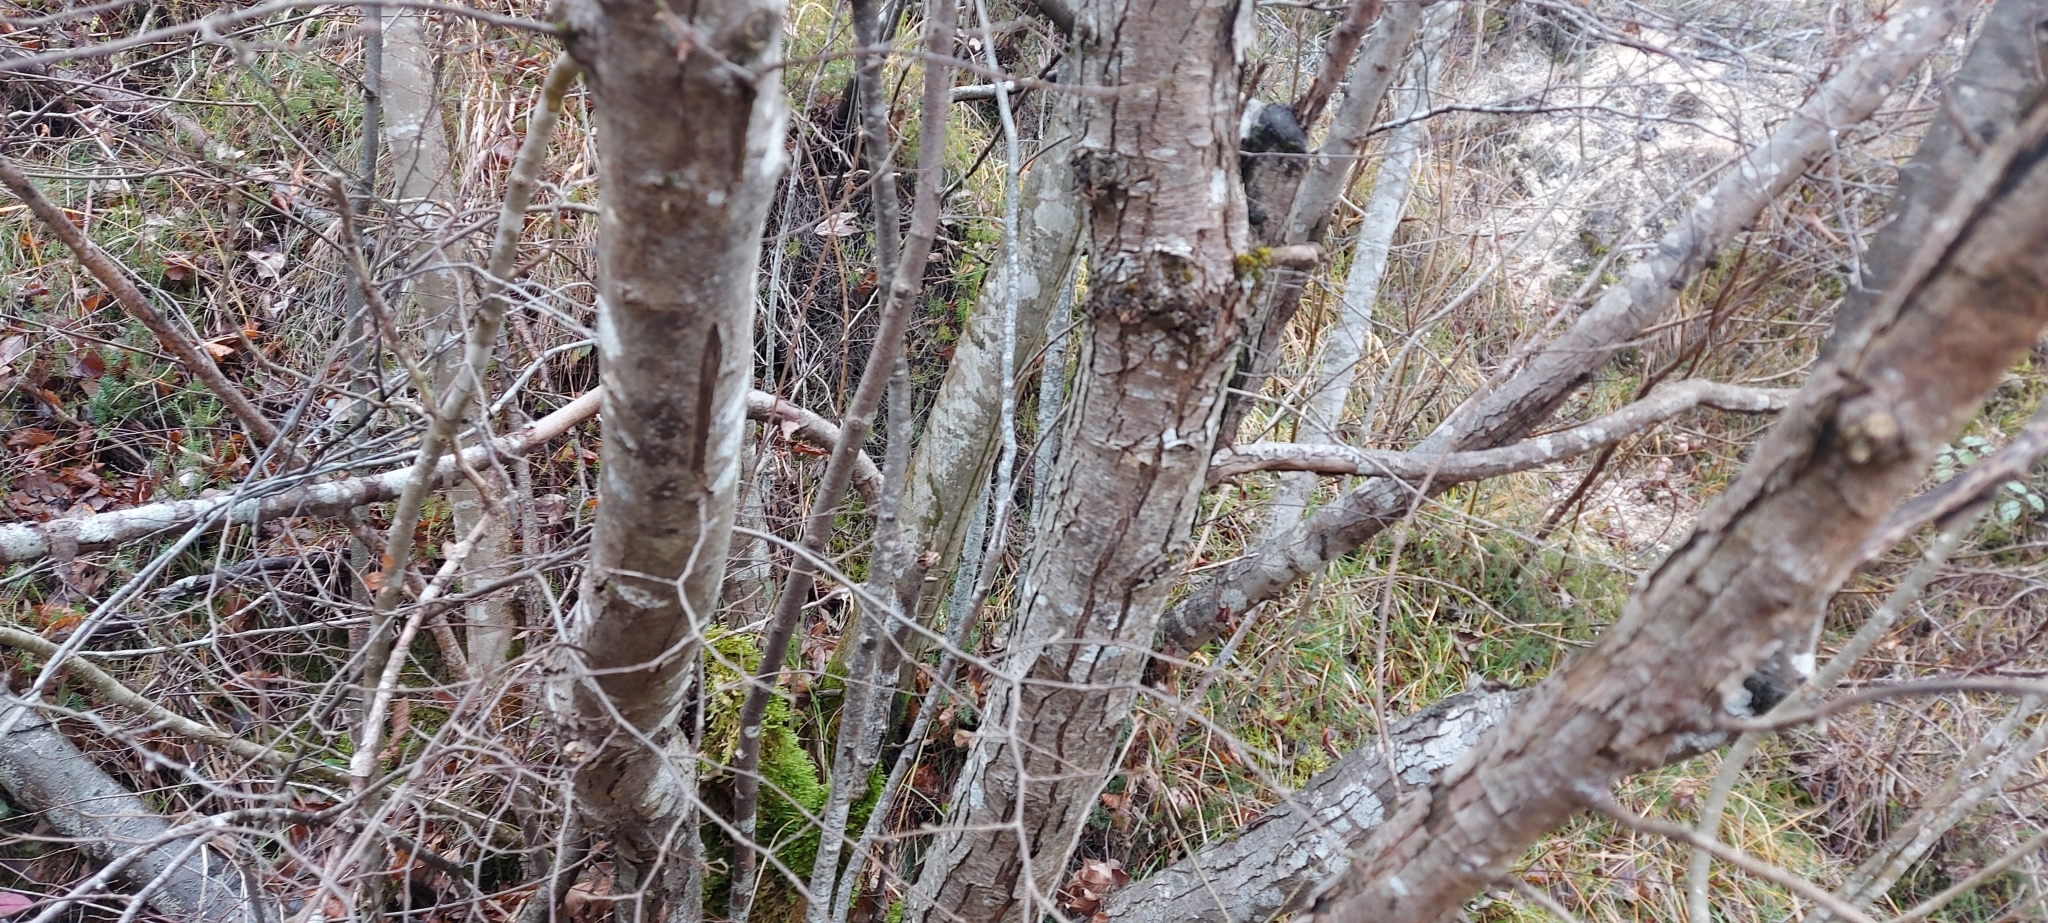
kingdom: Plantae
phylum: Tracheophyta
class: Magnoliopsida
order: Fagales
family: Betulaceae
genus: Ostrya
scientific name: Ostrya carpinifolia
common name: European hop-hornbeam
